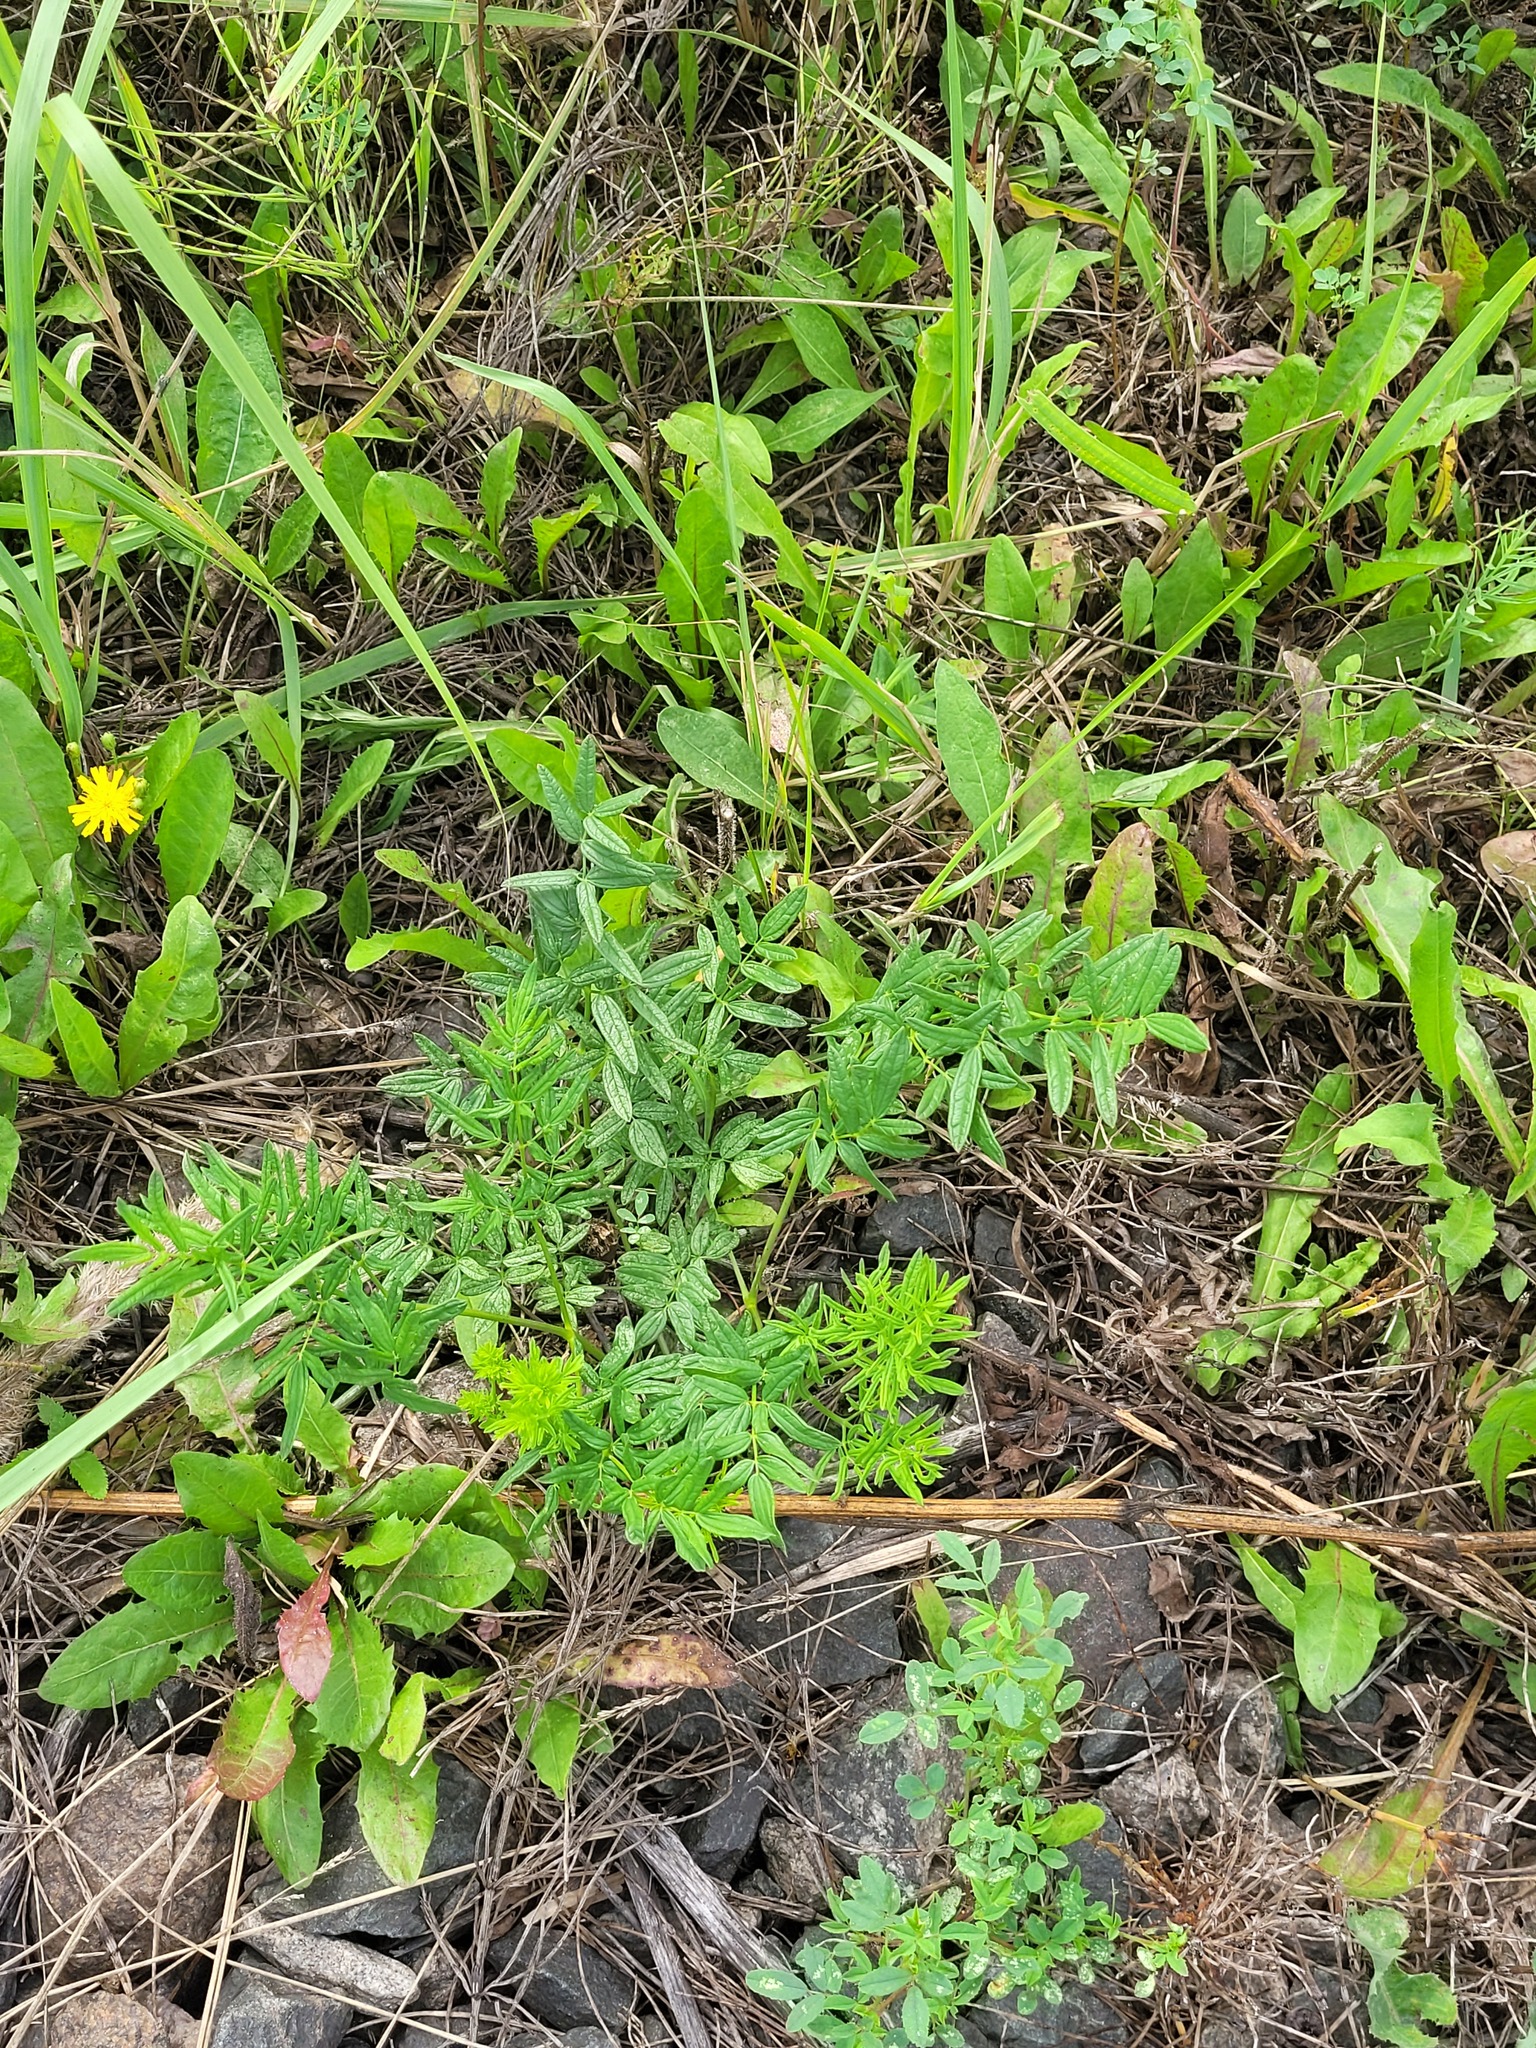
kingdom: Plantae
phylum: Tracheophyta
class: Magnoliopsida
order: Ranunculales
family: Ranunculaceae
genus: Thalictrum
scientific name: Thalictrum lucidum
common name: Shining meadow-rue
